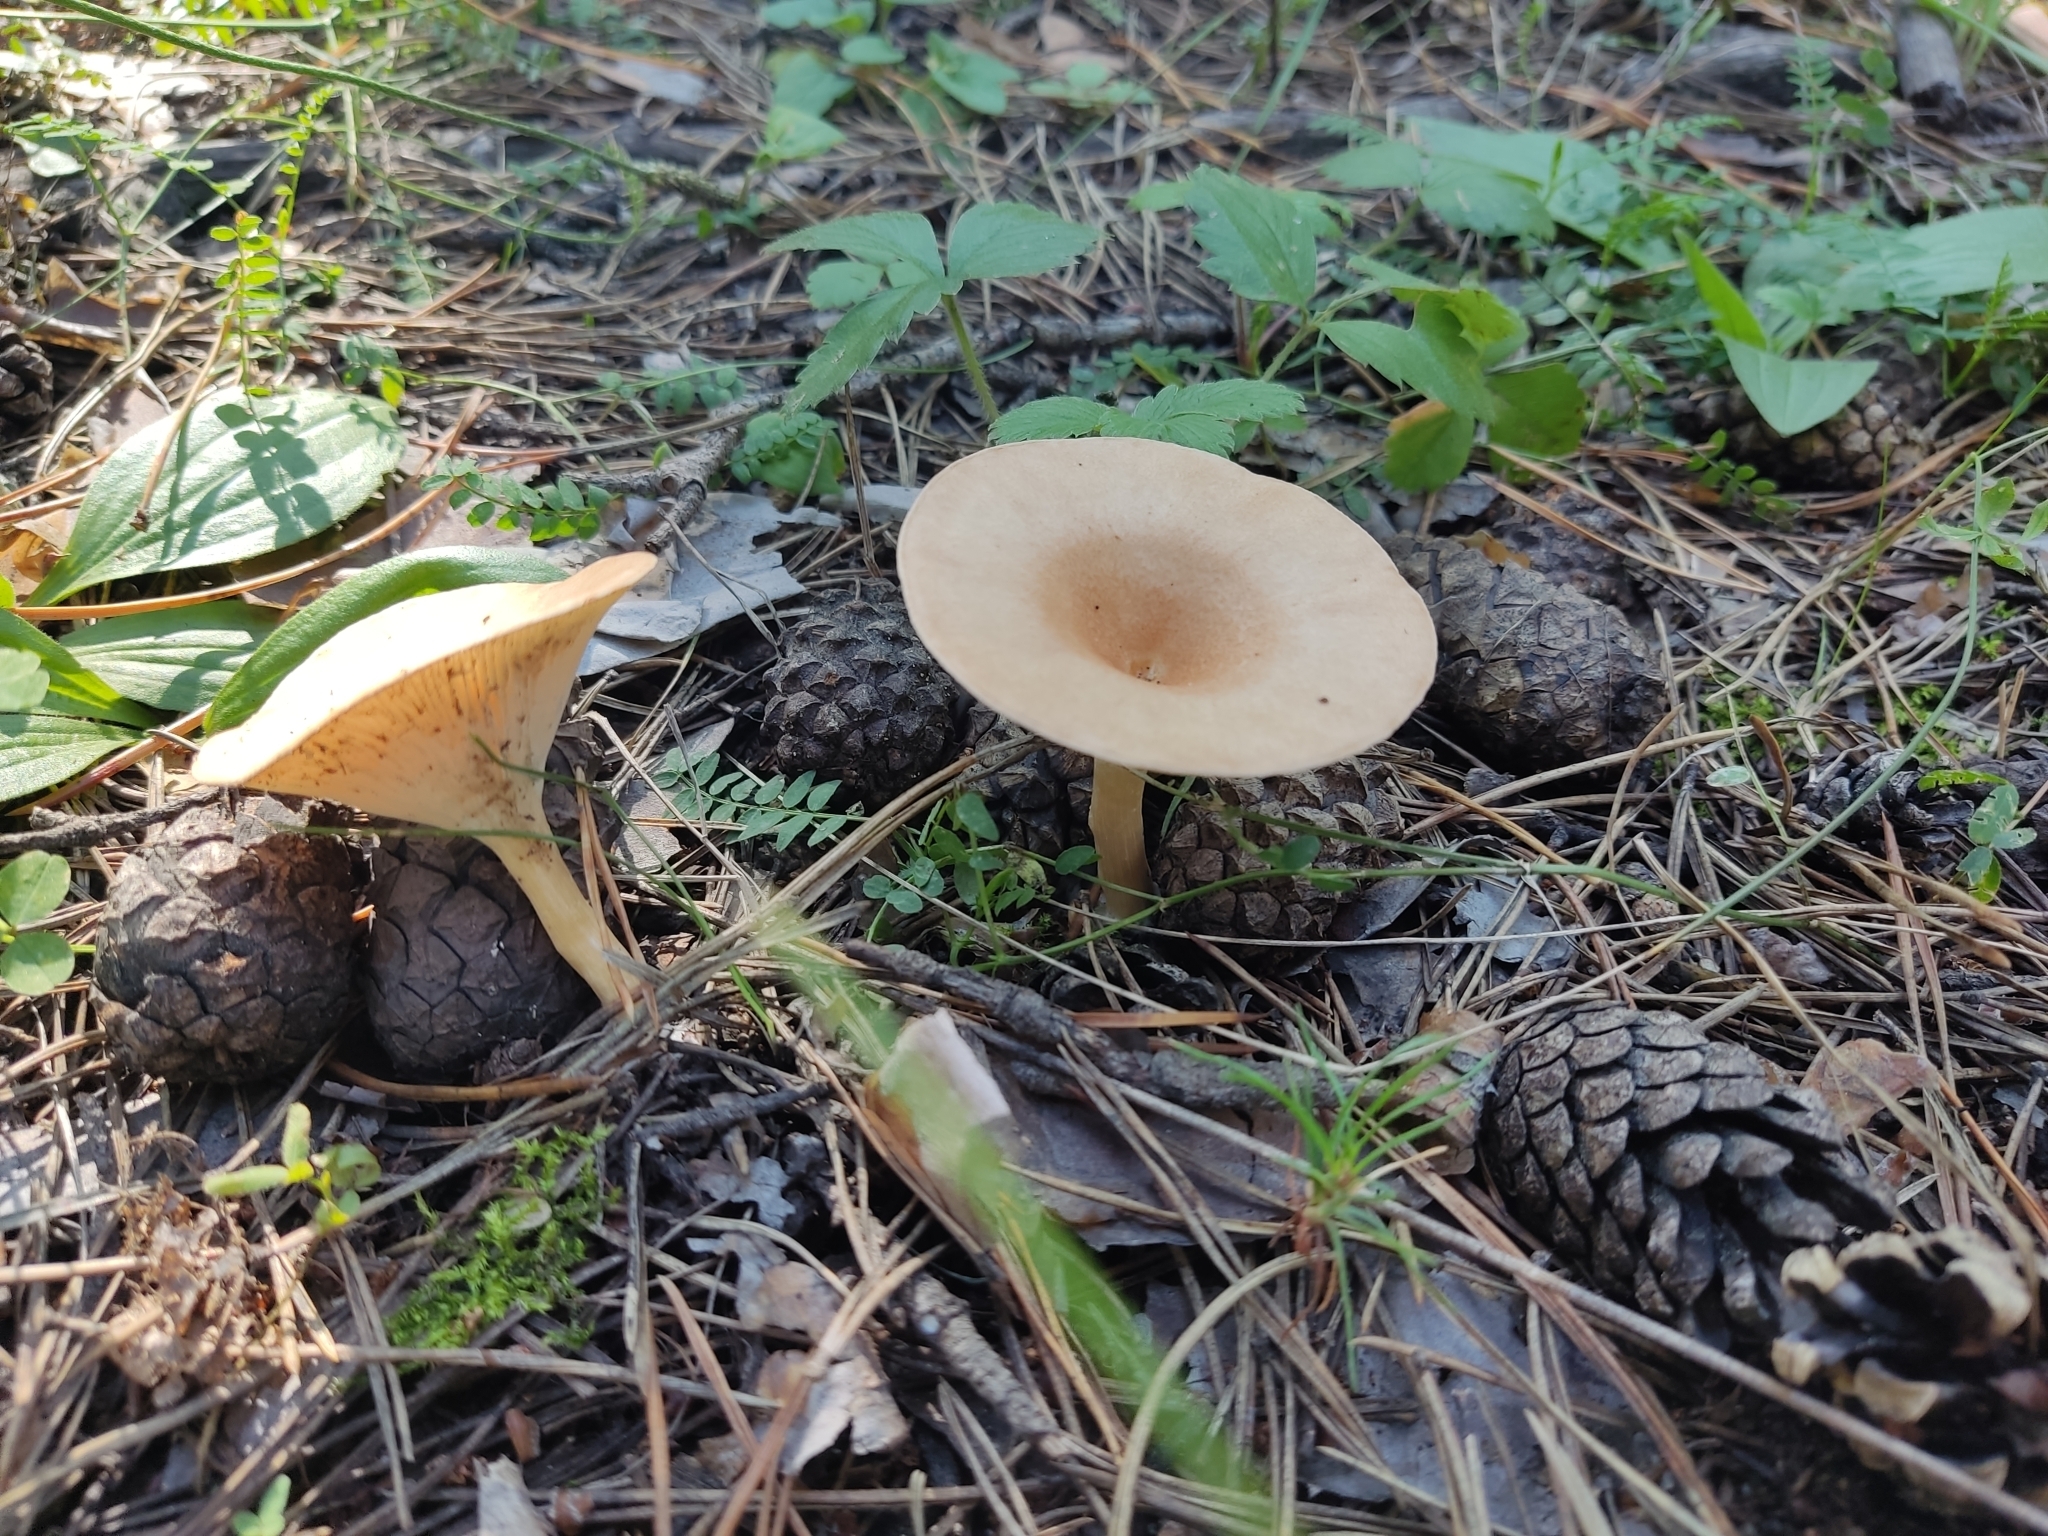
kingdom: Fungi
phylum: Basidiomycota
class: Agaricomycetes
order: Agaricales
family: Tricholomataceae
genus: Infundibulicybe
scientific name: Infundibulicybe gibba
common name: Common funnel
